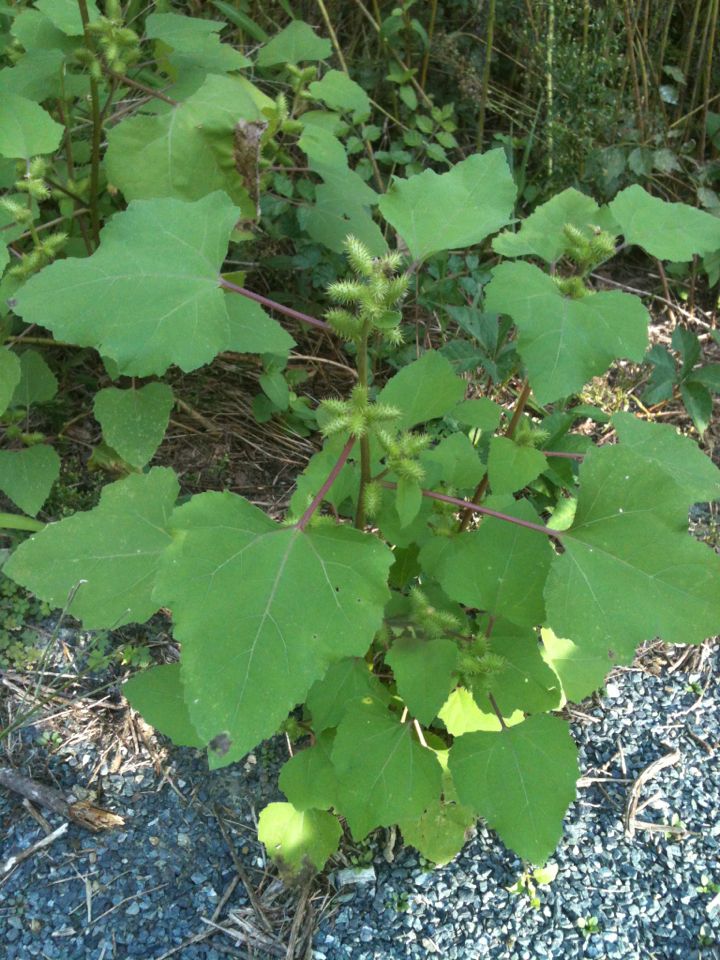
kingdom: Plantae
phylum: Tracheophyta
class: Magnoliopsida
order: Asterales
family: Asteraceae
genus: Xanthium
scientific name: Xanthium strumarium
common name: Rough cocklebur
